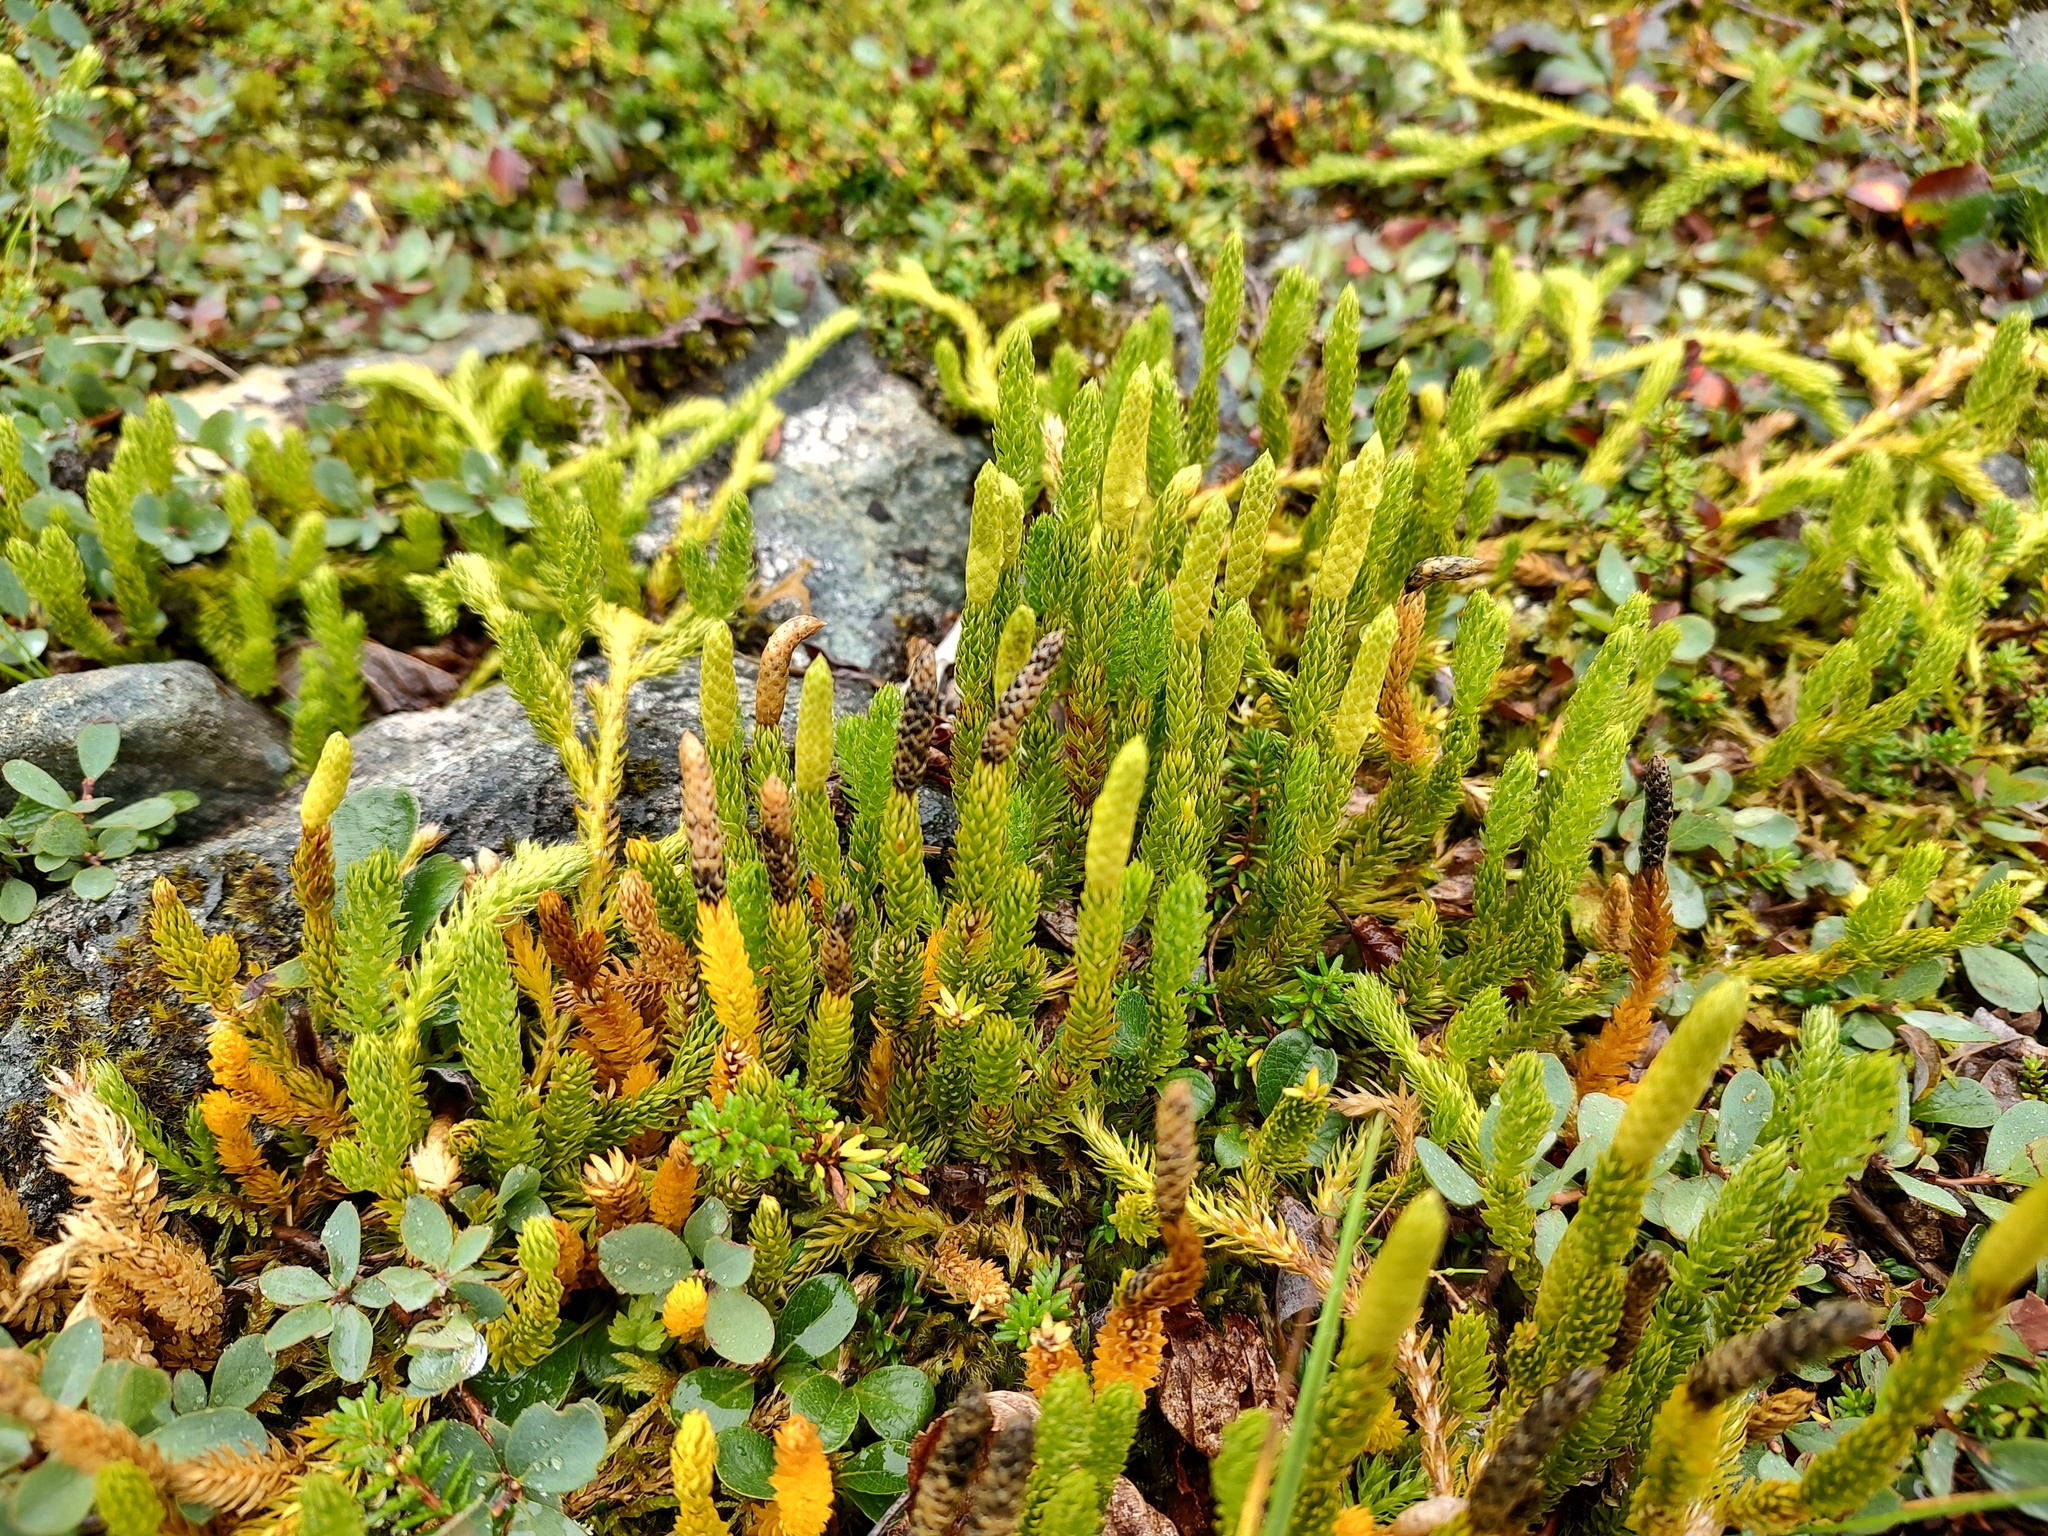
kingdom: Plantae
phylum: Tracheophyta
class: Lycopodiopsida
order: Lycopodiales
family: Lycopodiaceae
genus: Spinulum
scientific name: Spinulum annotinum
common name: Interrupted club-moss
